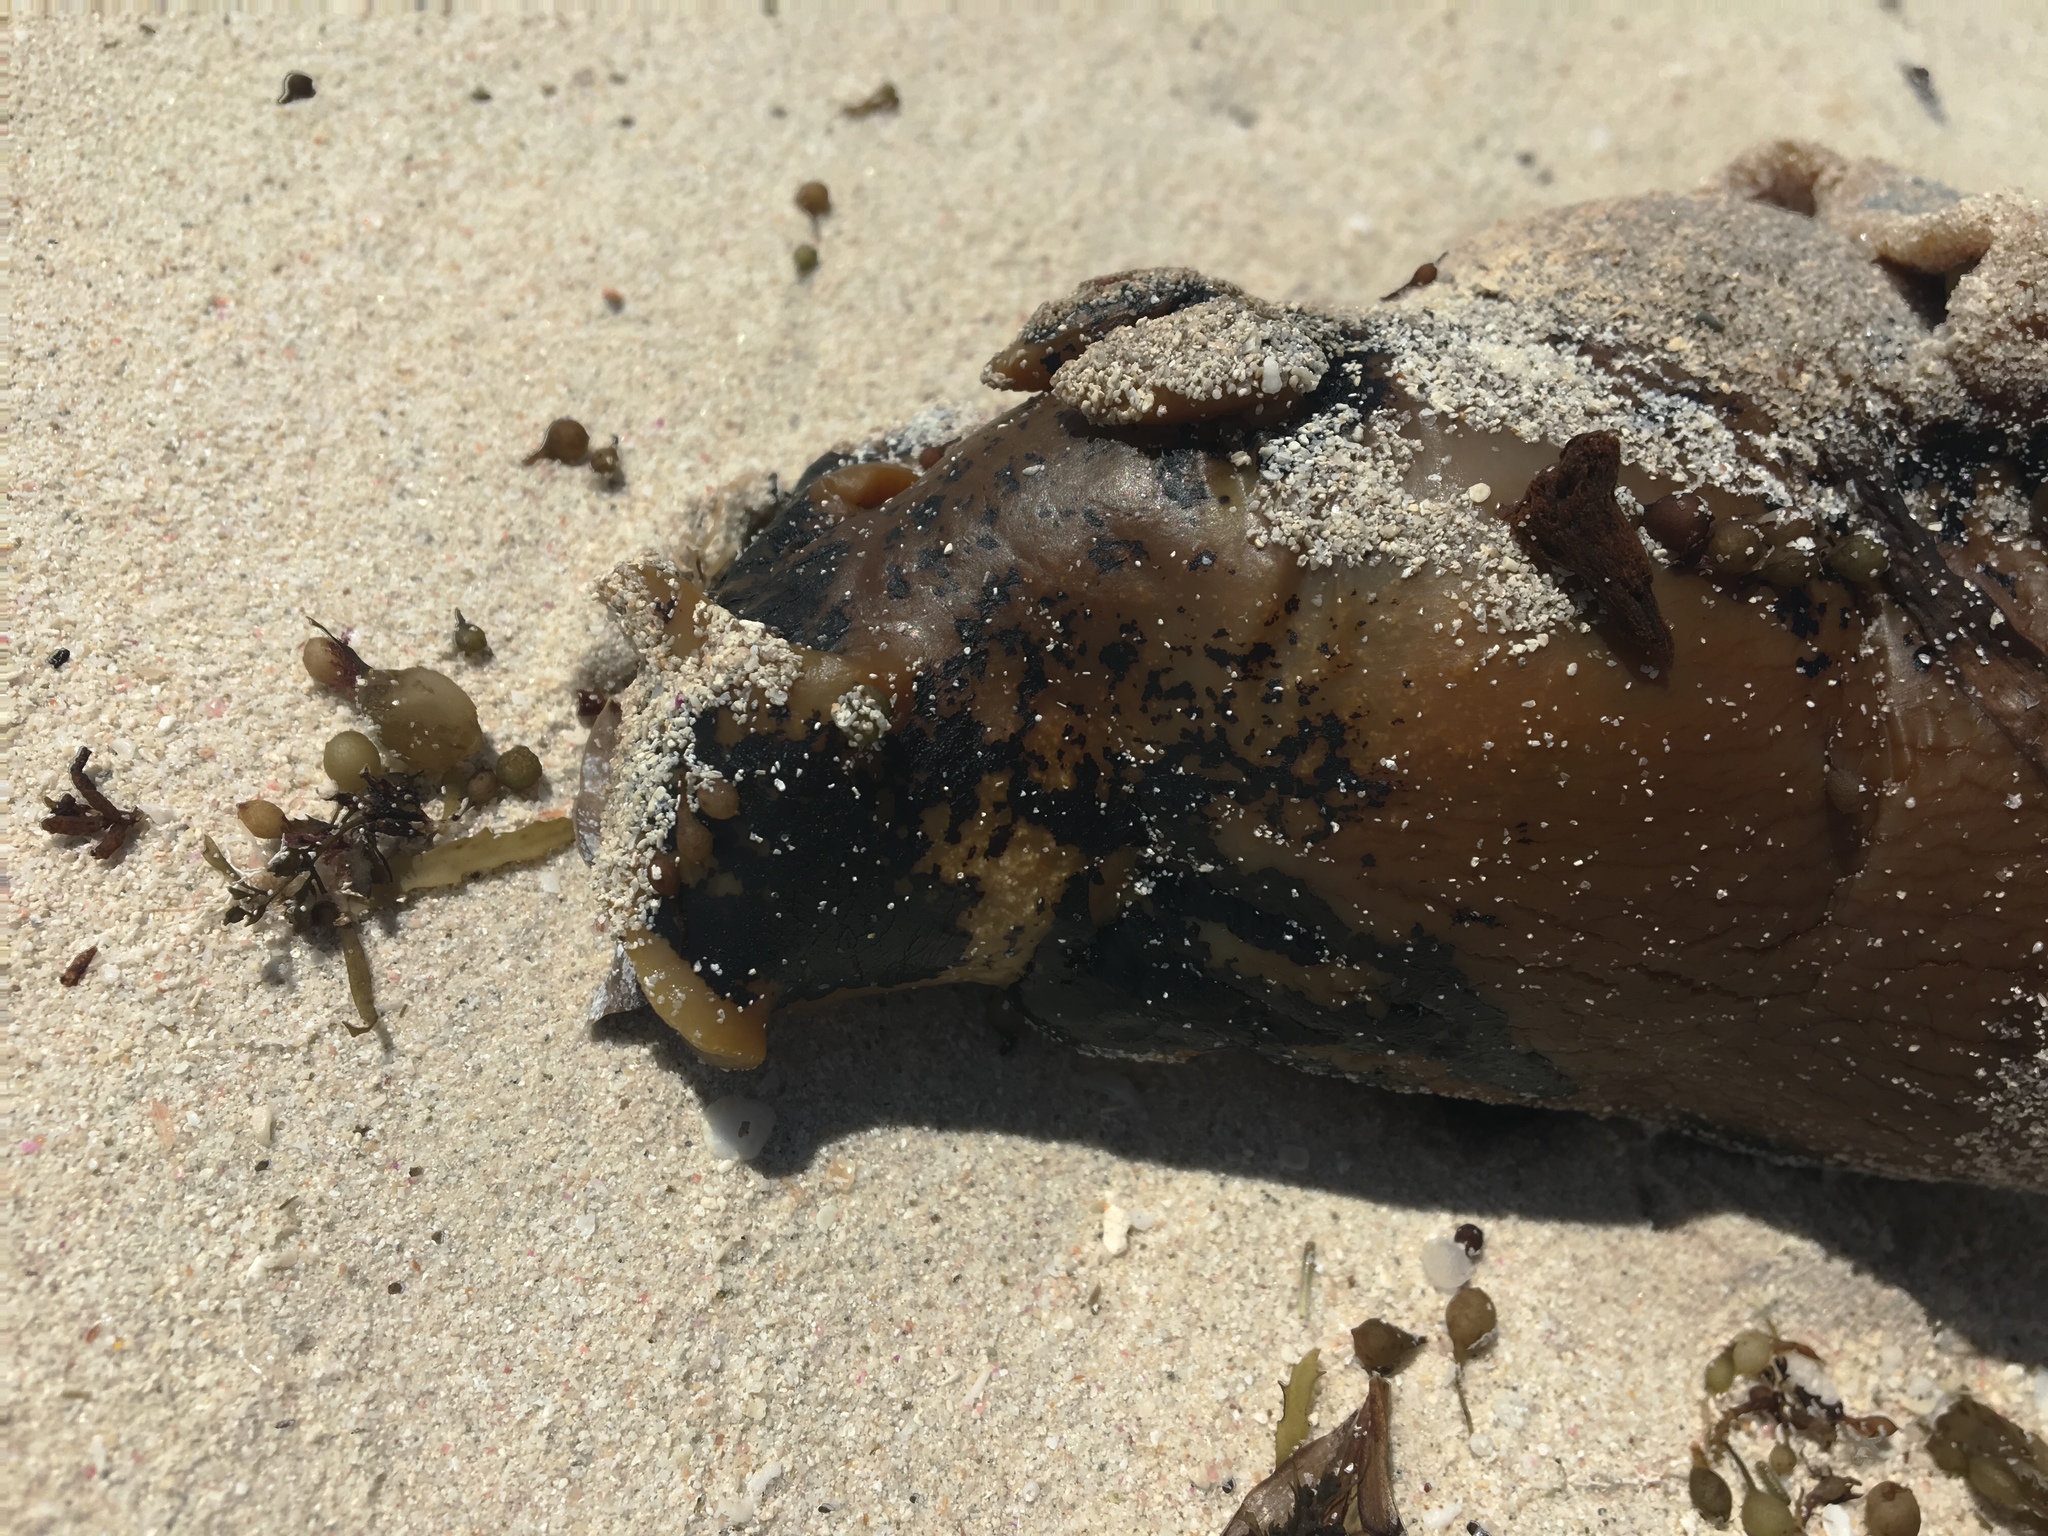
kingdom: Animalia
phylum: Mollusca
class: Gastropoda
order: Aplysiida
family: Aplysiidae
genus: Aplysia
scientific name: Aplysia gigantea
